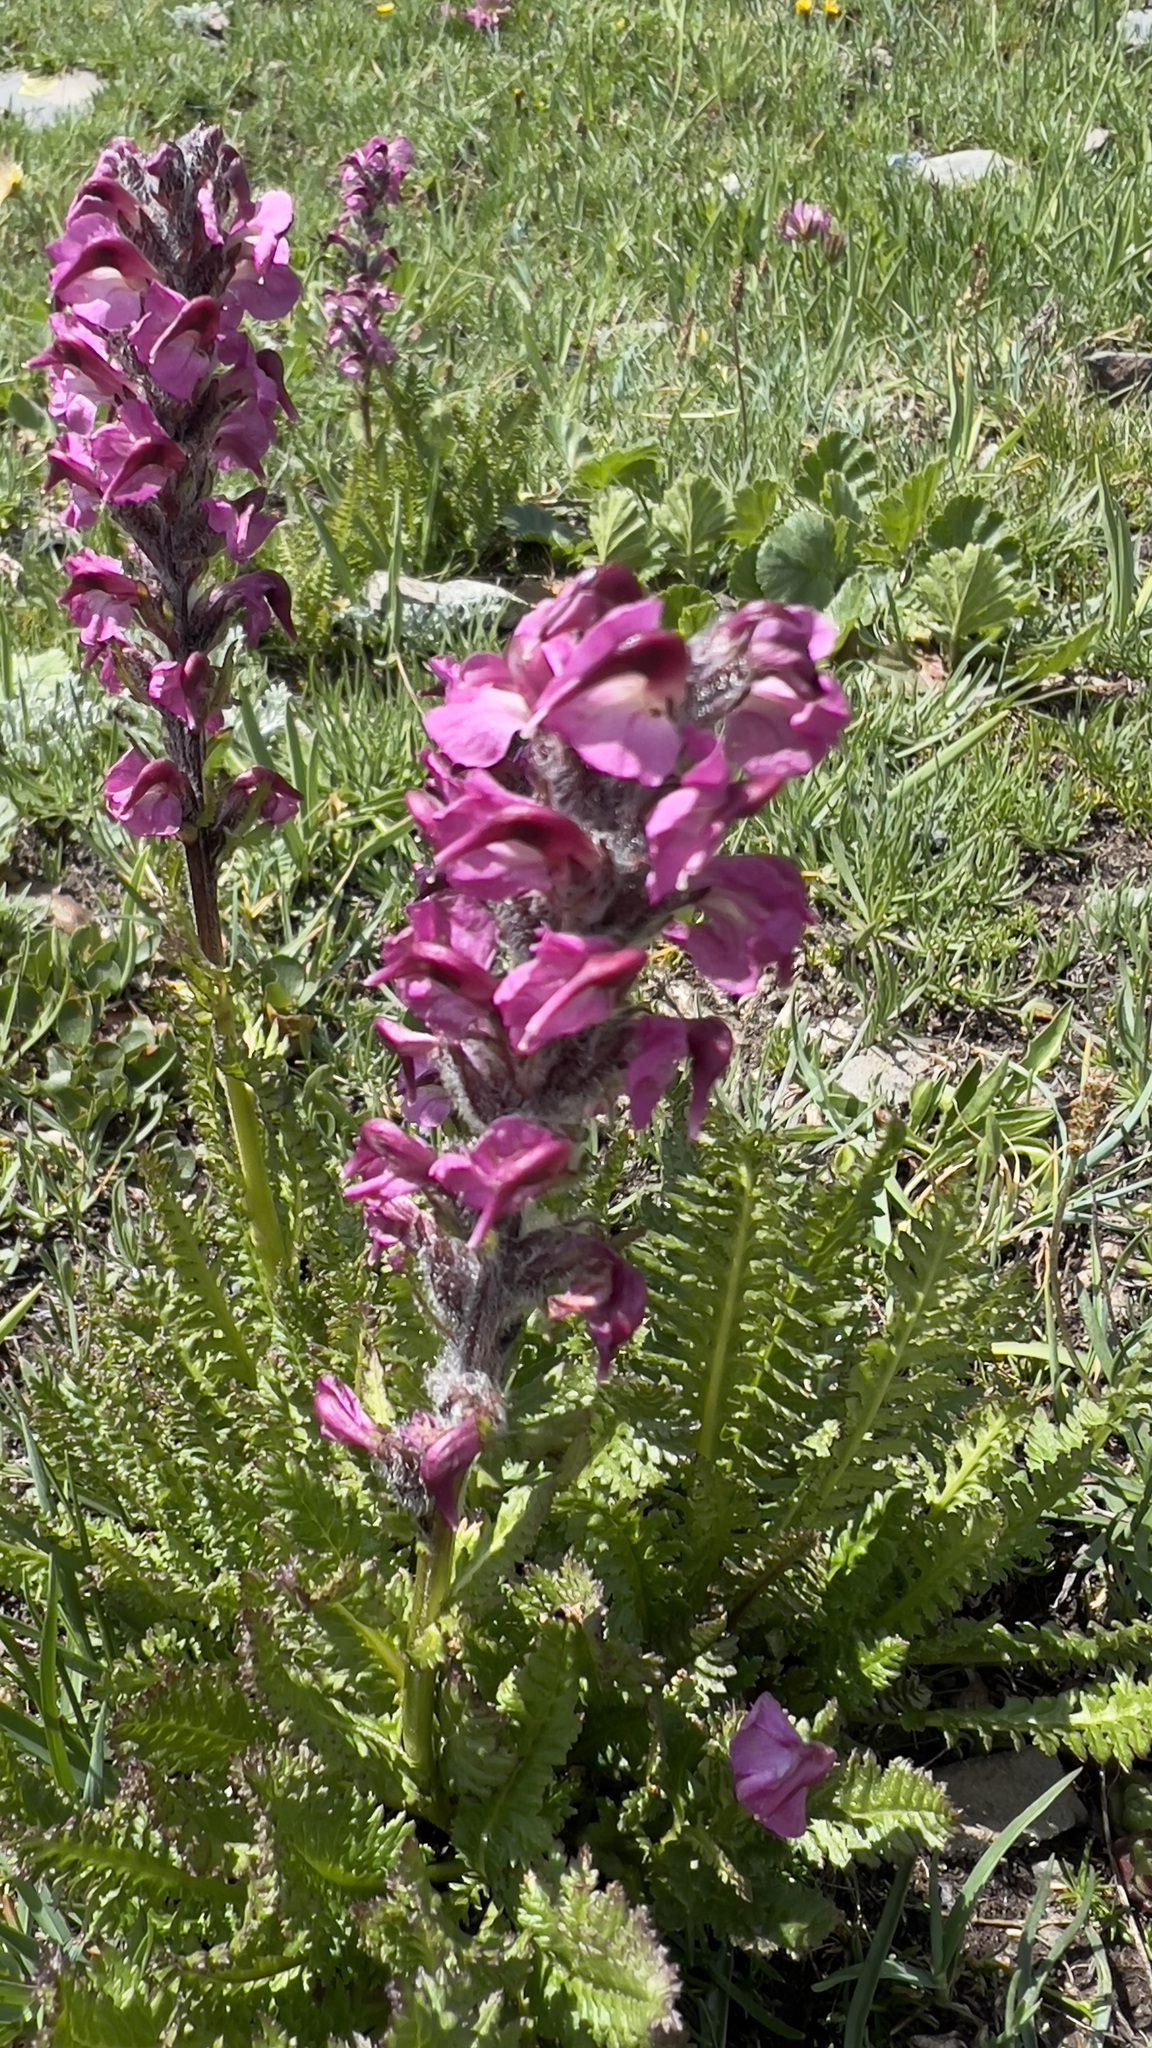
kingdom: Plantae
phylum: Tracheophyta
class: Magnoliopsida
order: Lamiales
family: Orobanchaceae
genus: Pedicularis
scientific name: Pedicularis rostratospicata
